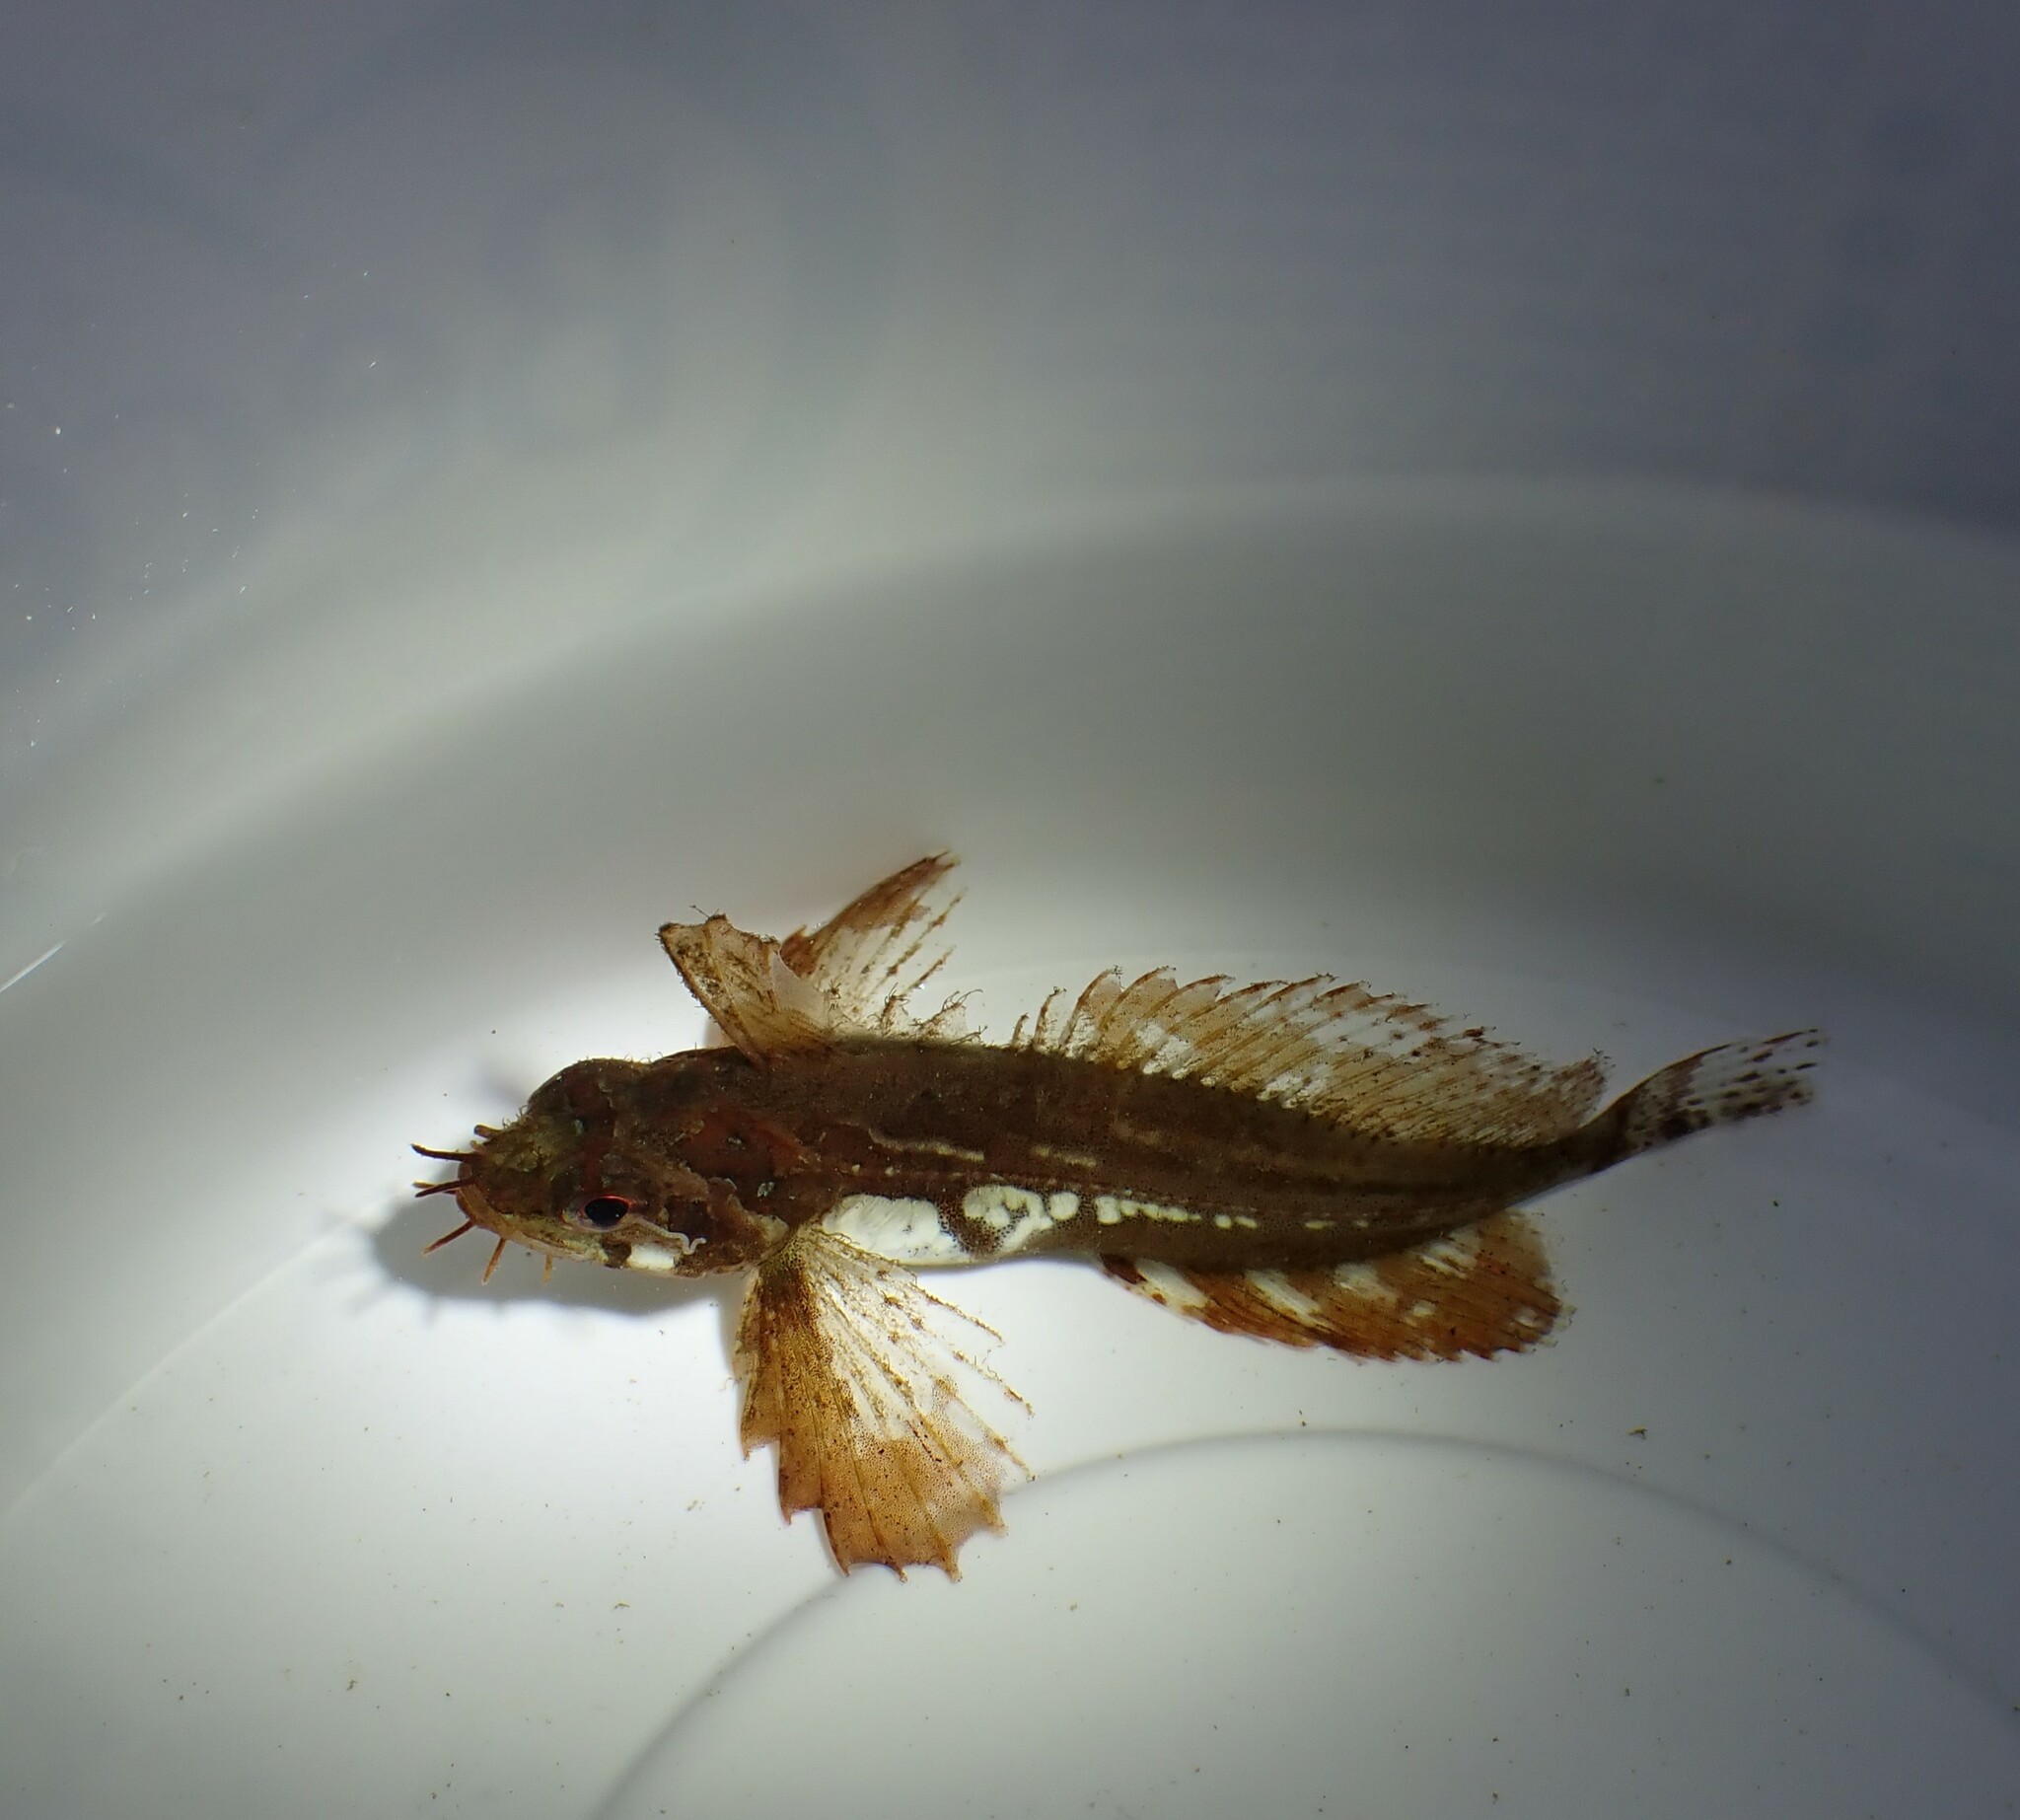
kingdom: Animalia
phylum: Chordata
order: Scorpaeniformes
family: Hemitripteridae
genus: Blepsias
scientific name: Blepsias cirrhosus
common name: Silverspotted sculpin
